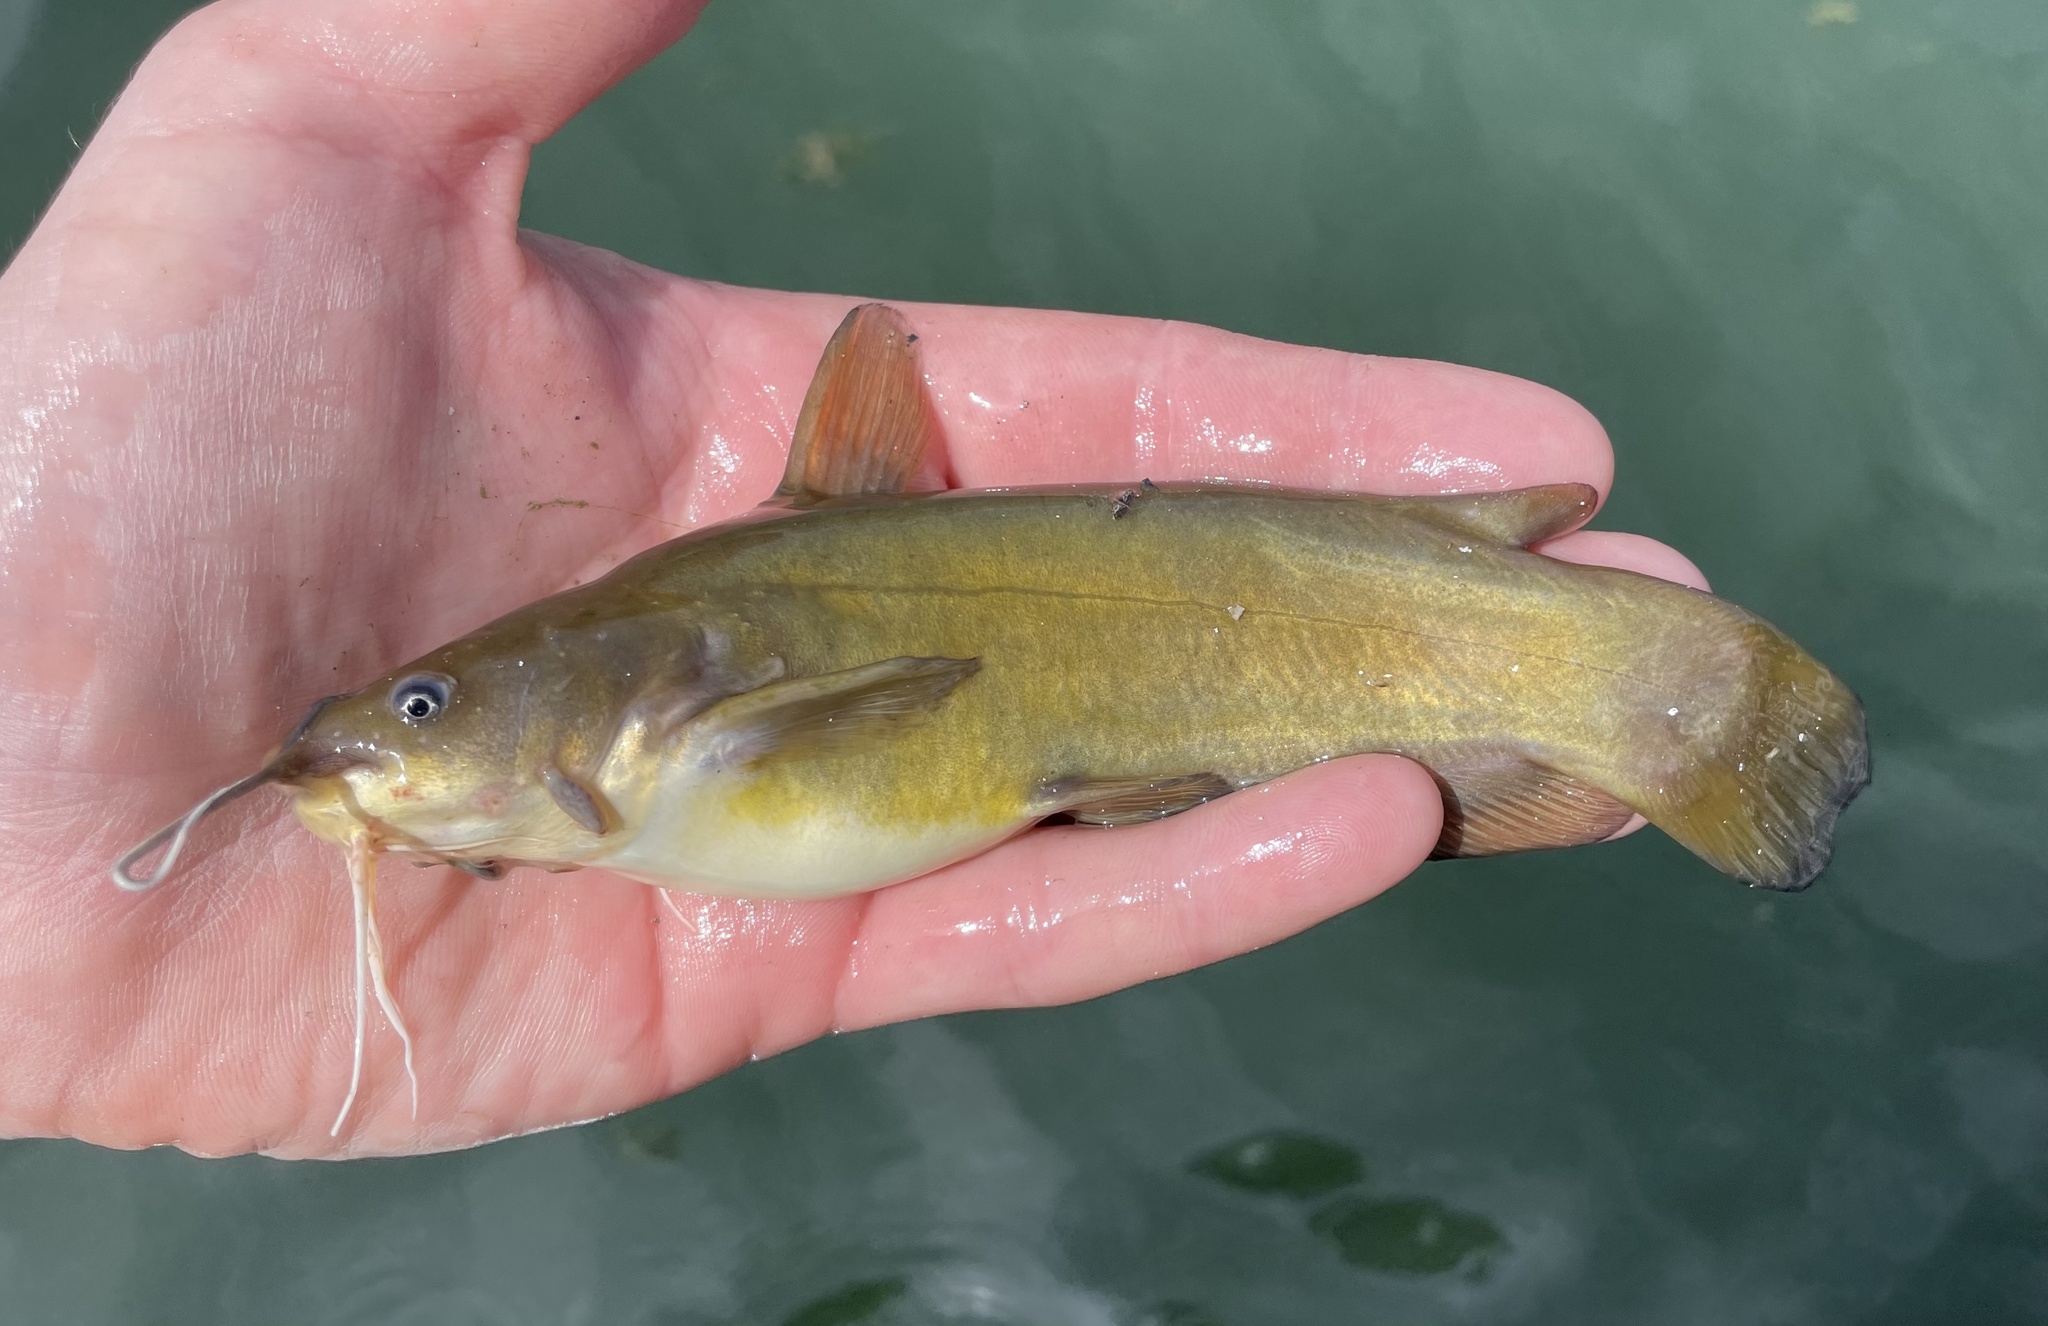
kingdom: Animalia
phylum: Chordata
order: Siluriformes
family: Ictaluridae
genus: Ameiurus
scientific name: Ameiurus natalis
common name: Yellow bullhead
